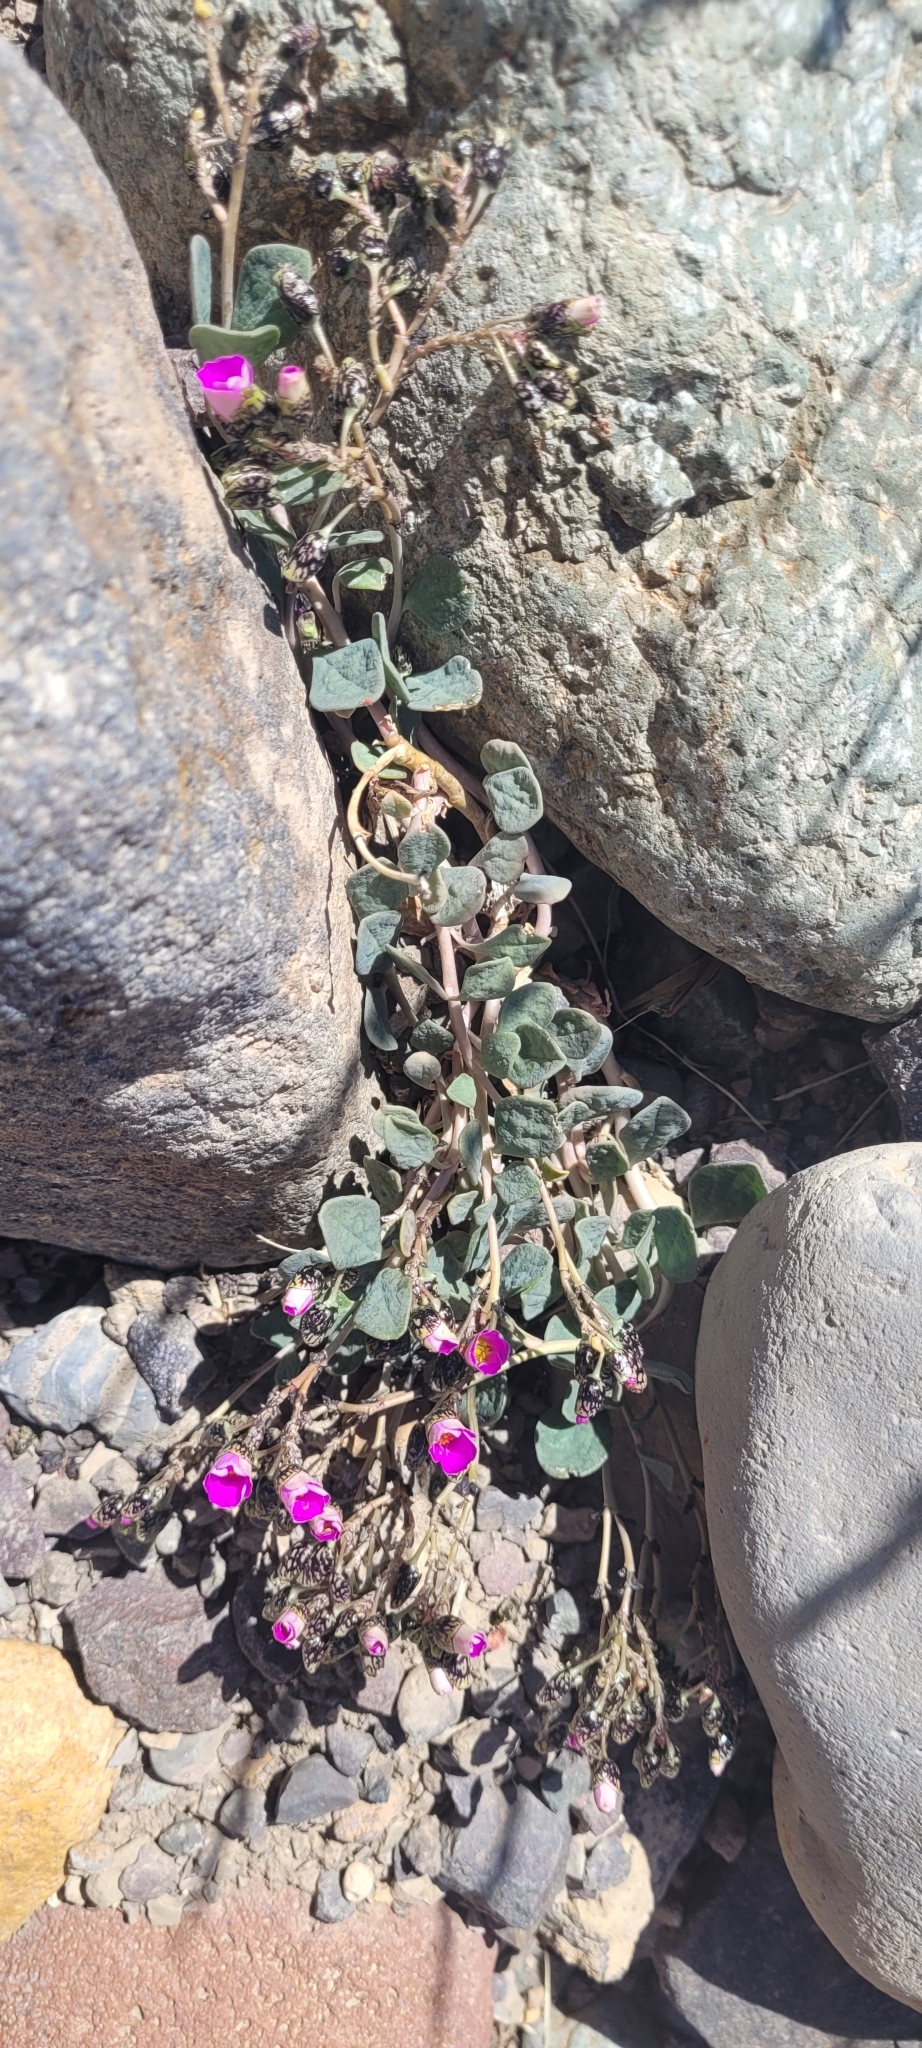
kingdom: Plantae
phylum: Tracheophyta
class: Magnoliopsida
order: Caryophyllales
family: Montiaceae
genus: Cistanthe
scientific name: Cistanthe picta
